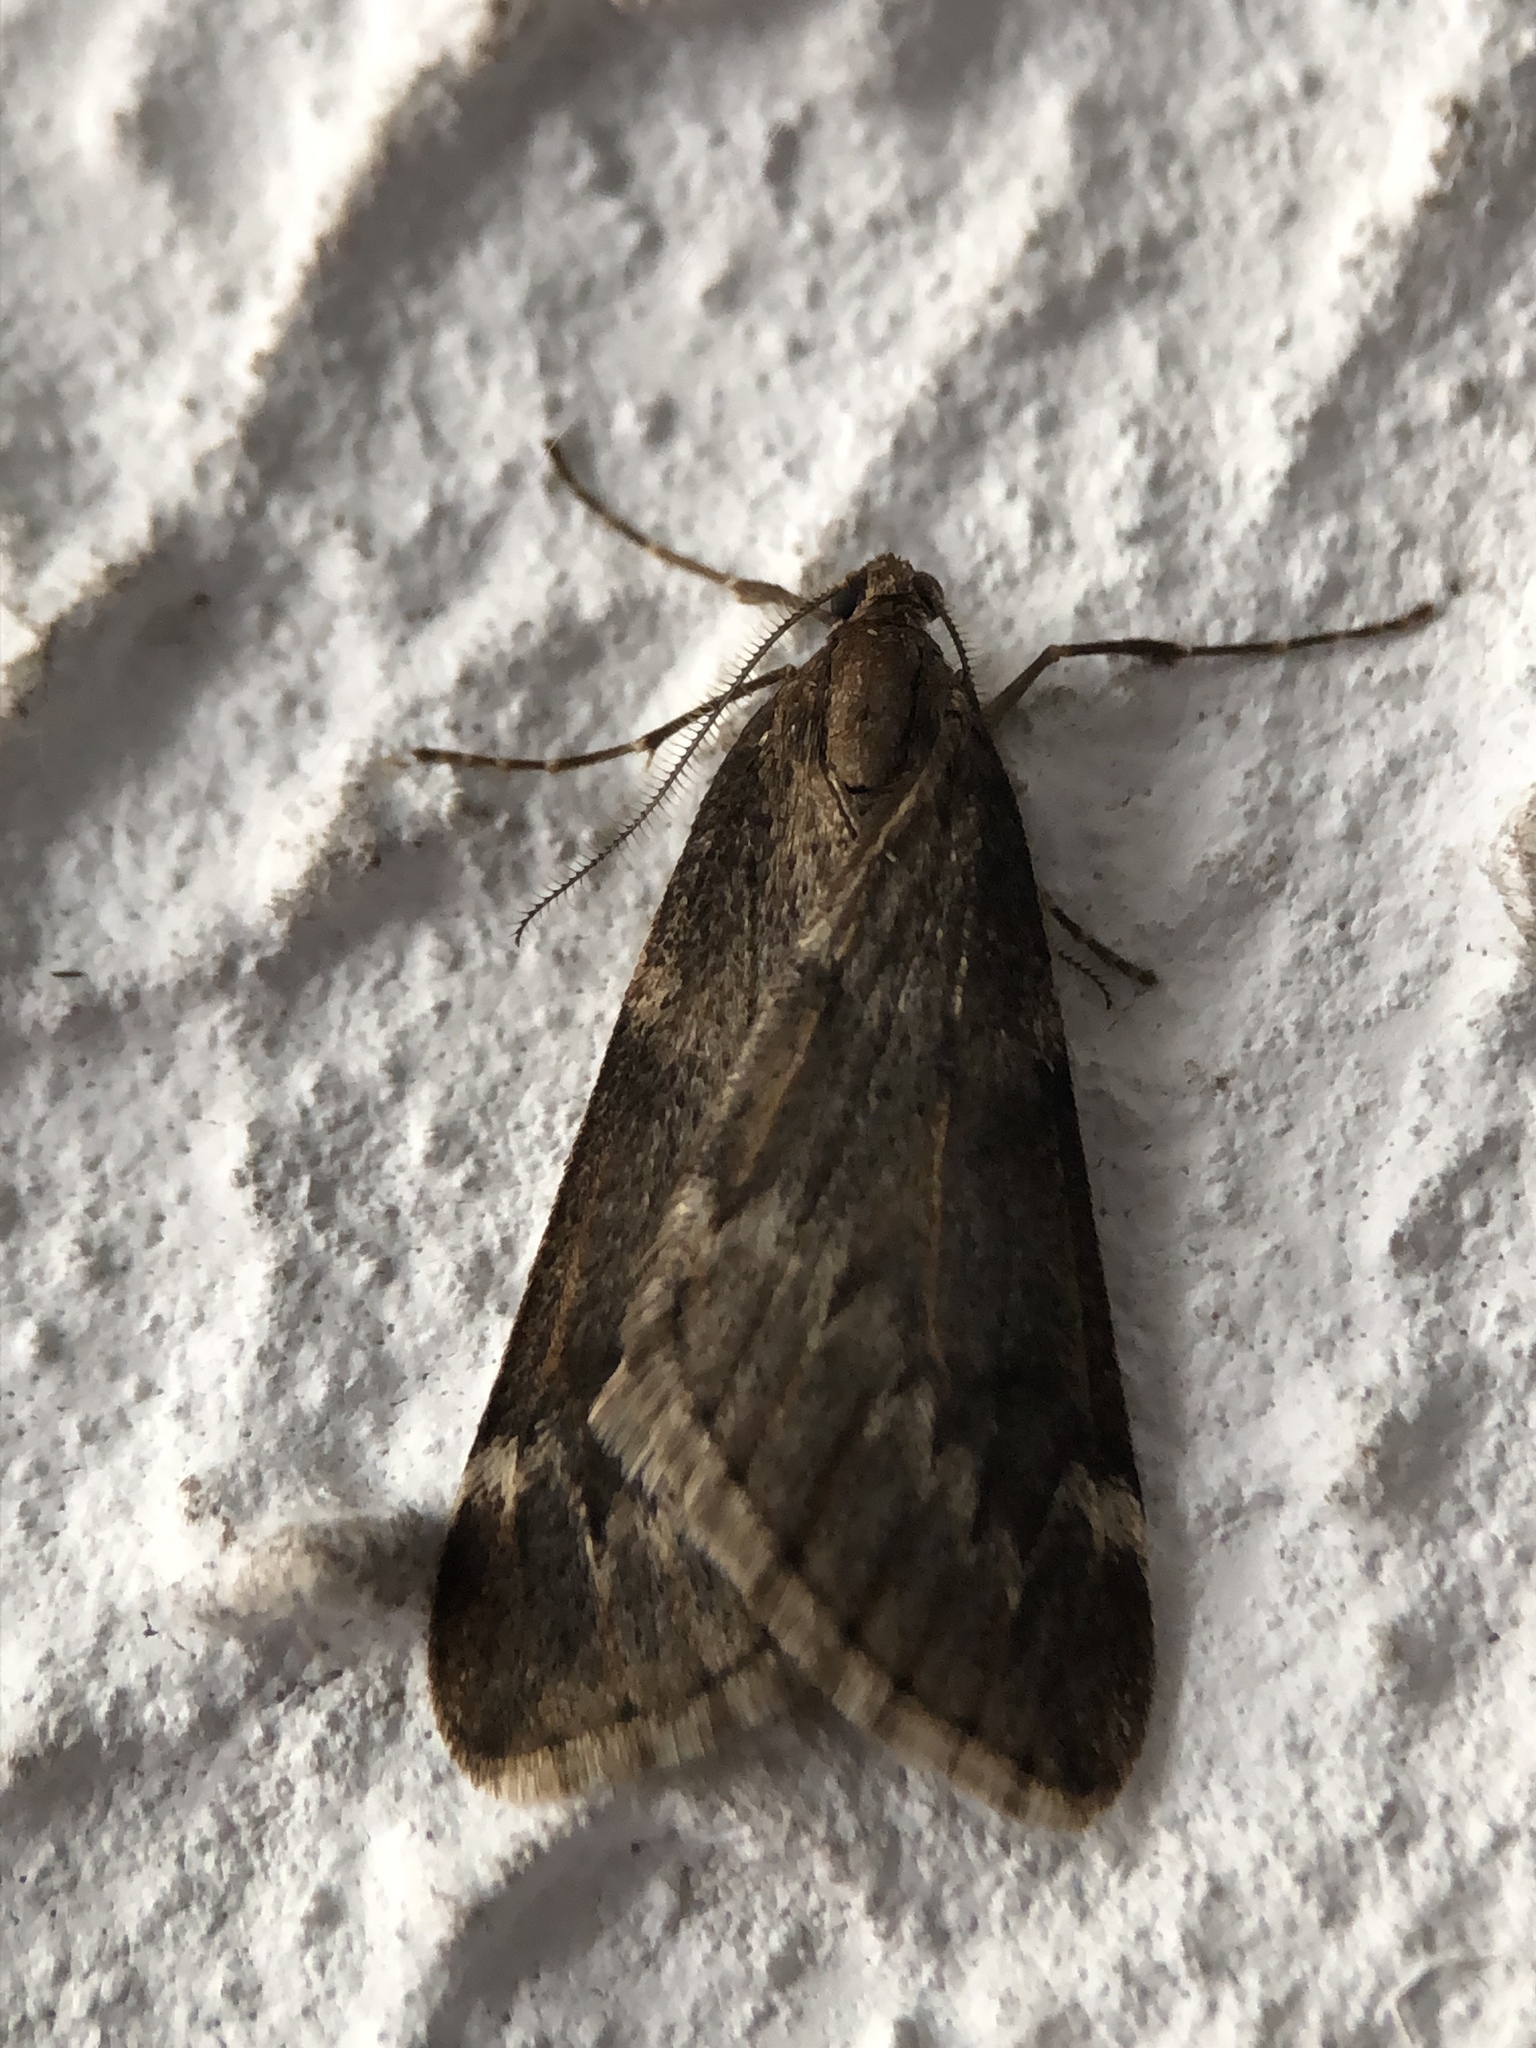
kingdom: Animalia
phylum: Arthropoda
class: Insecta
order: Lepidoptera
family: Geometridae
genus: Alsophila
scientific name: Alsophila aescularia
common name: March moth
